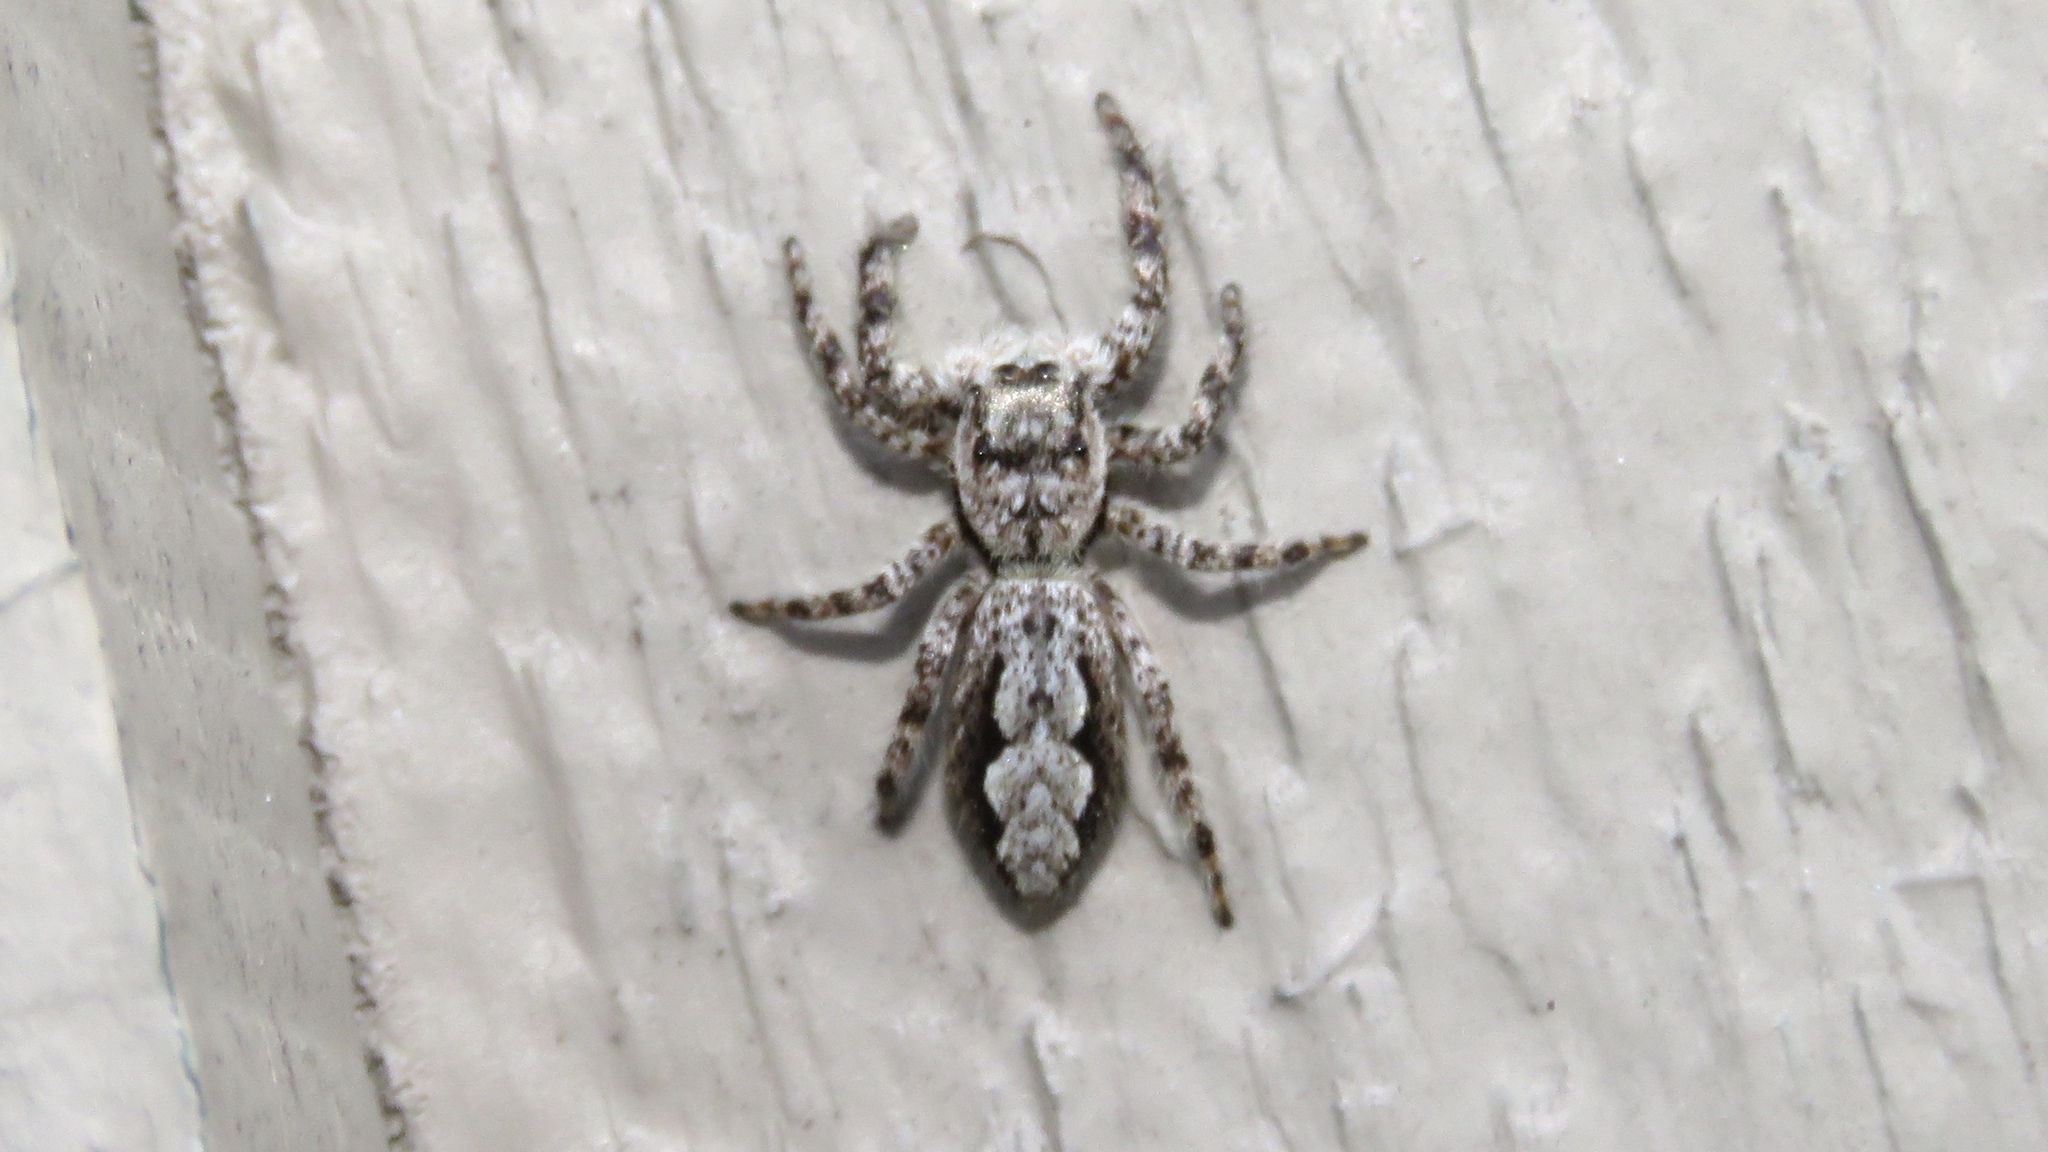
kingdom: Animalia
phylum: Arthropoda
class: Arachnida
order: Araneae
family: Salticidae
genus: Platycryptus
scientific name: Platycryptus undatus
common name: Tan jumping spider
